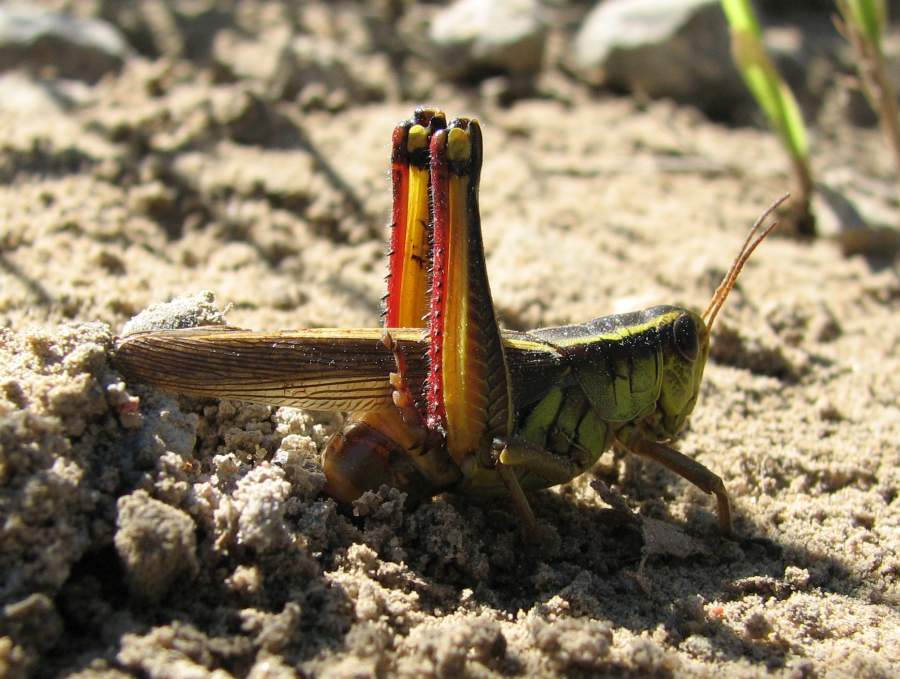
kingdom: Animalia
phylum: Arthropoda
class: Insecta
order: Orthoptera
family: Acrididae
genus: Melanoplus
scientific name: Melanoplus bivittatus
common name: Two-striped grasshopper
